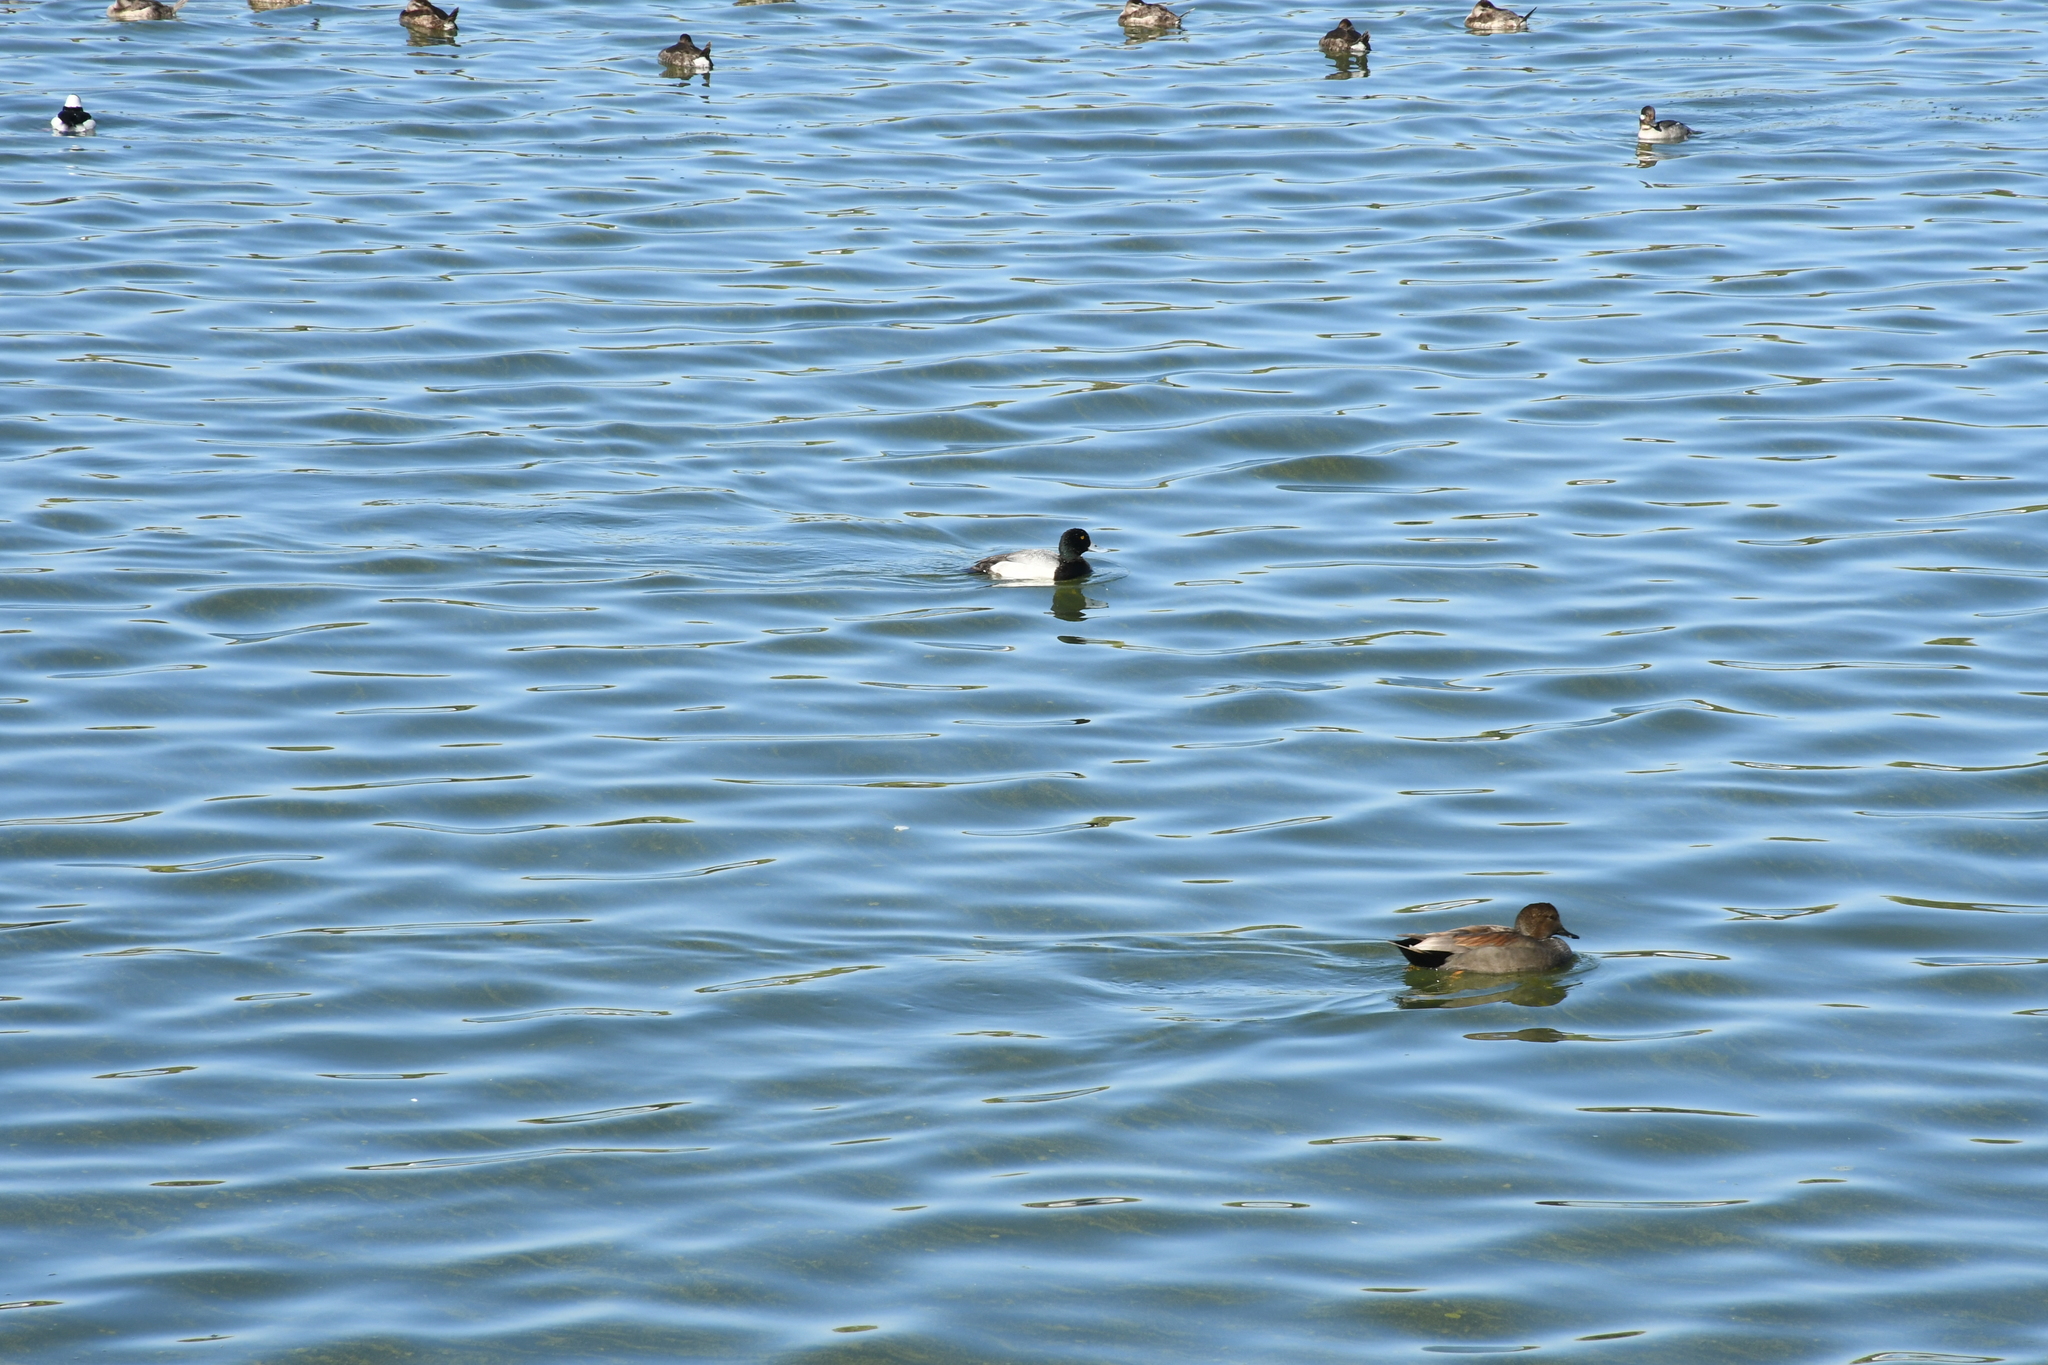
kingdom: Animalia
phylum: Chordata
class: Aves
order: Anseriformes
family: Anatidae
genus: Aythya
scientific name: Aythya affinis
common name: Lesser scaup
